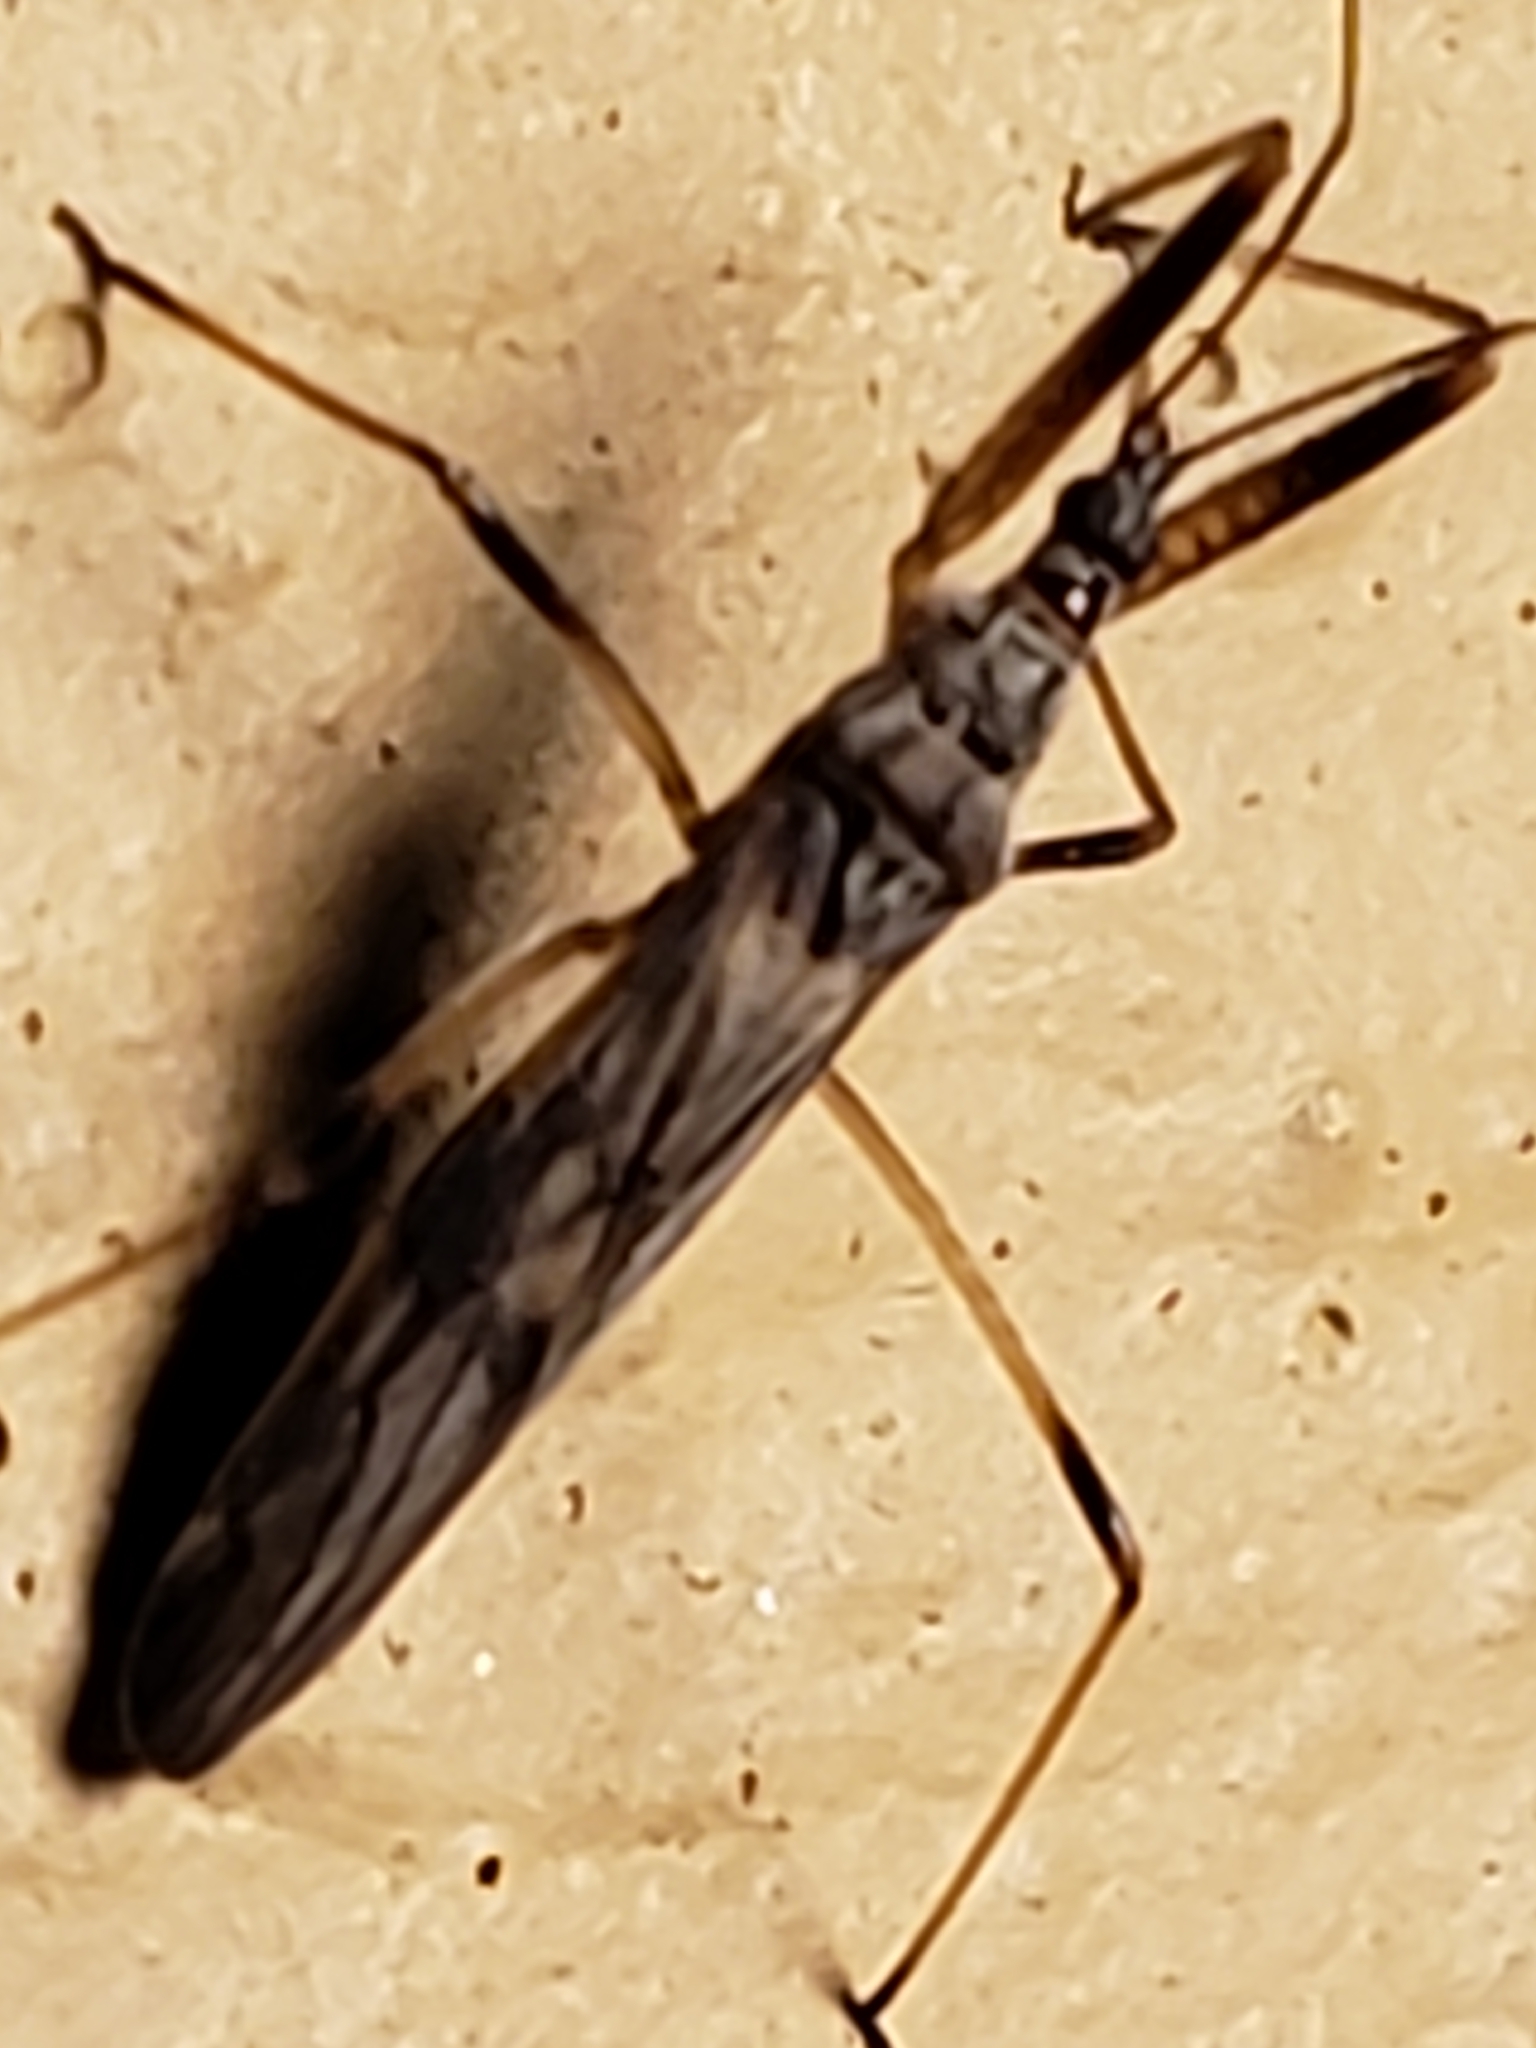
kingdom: Animalia
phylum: Arthropoda
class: Insecta
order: Hemiptera
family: Nabidae
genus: Metatropiphorus
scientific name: Metatropiphorus belfragii
